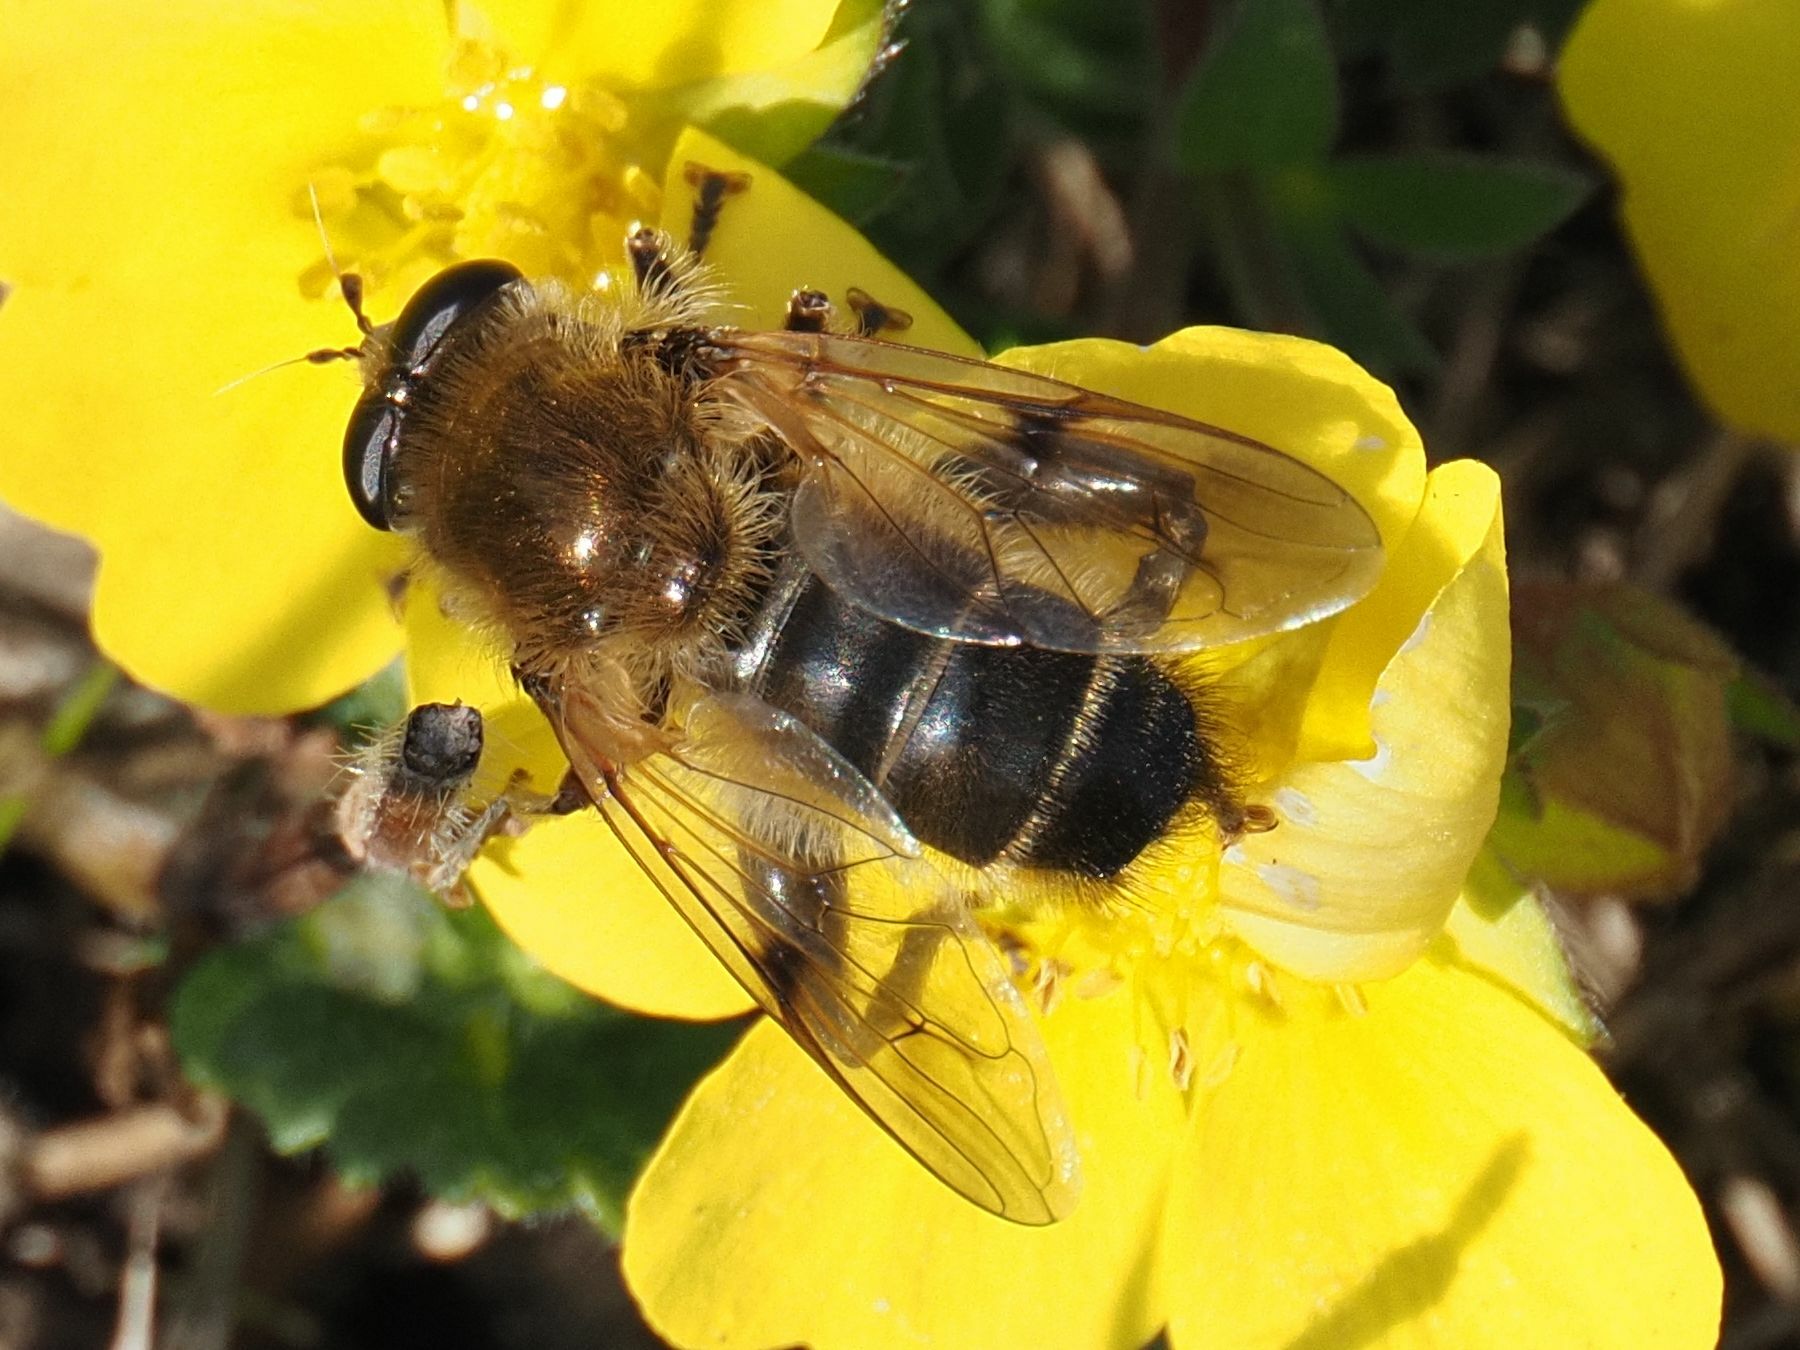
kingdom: Animalia
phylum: Arthropoda
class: Insecta
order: Diptera
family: Syrphidae
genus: Brachypalpus
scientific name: Brachypalpus valgus
